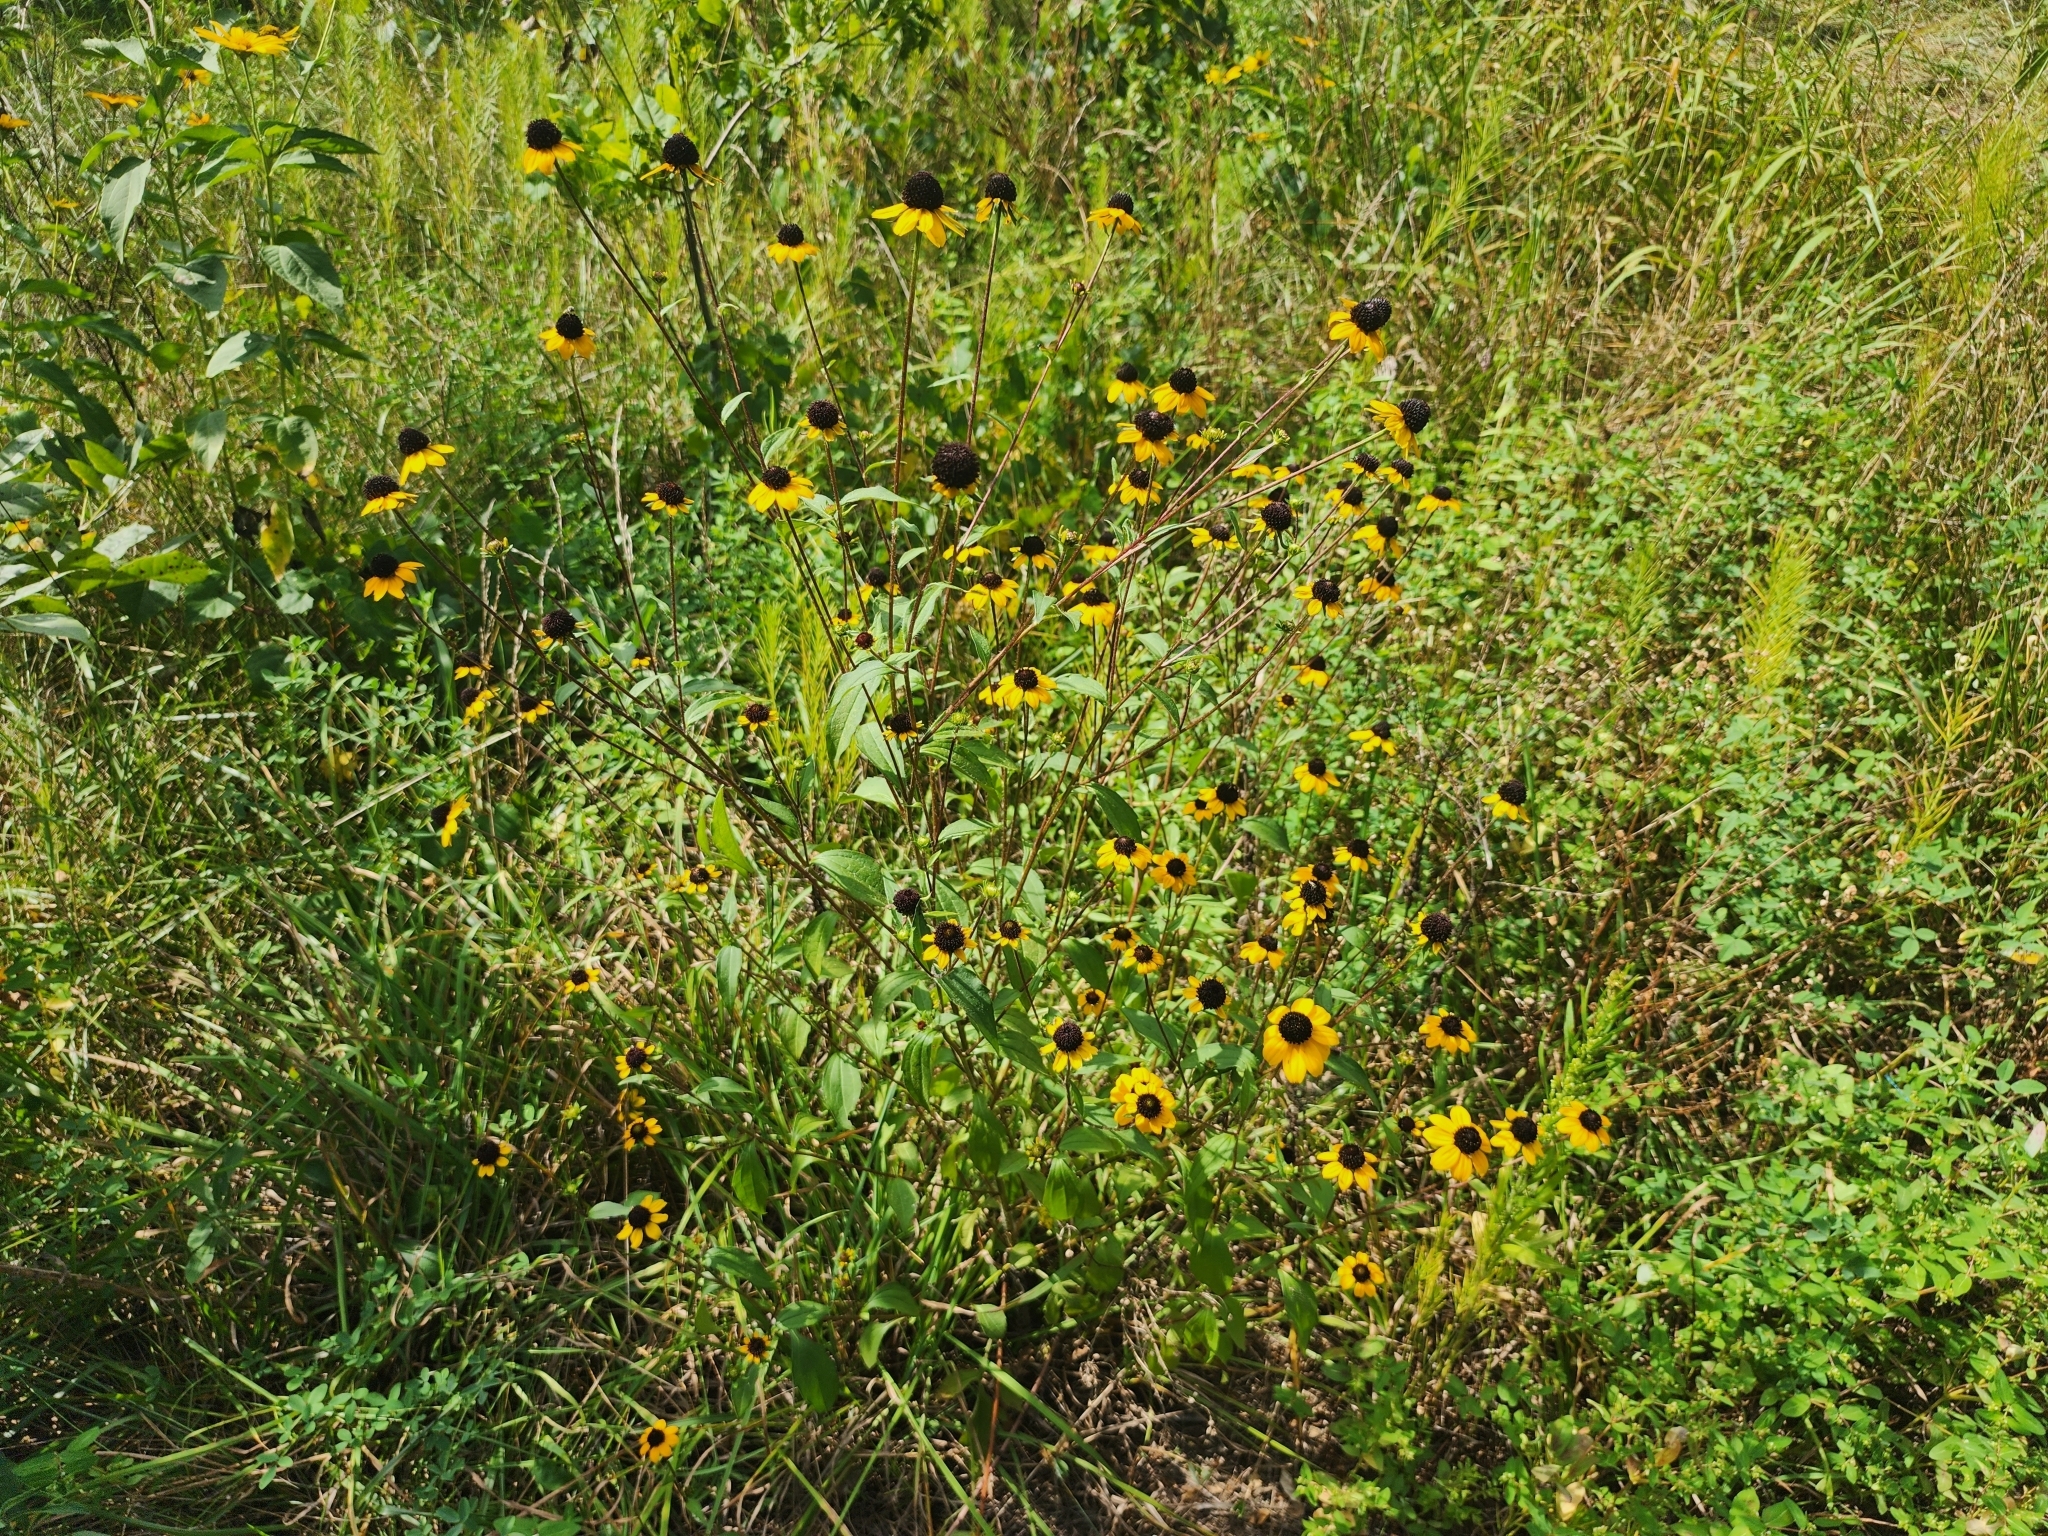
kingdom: Plantae
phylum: Tracheophyta
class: Magnoliopsida
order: Asterales
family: Asteraceae
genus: Rudbeckia
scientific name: Rudbeckia triloba
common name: Thin-leaved coneflower
